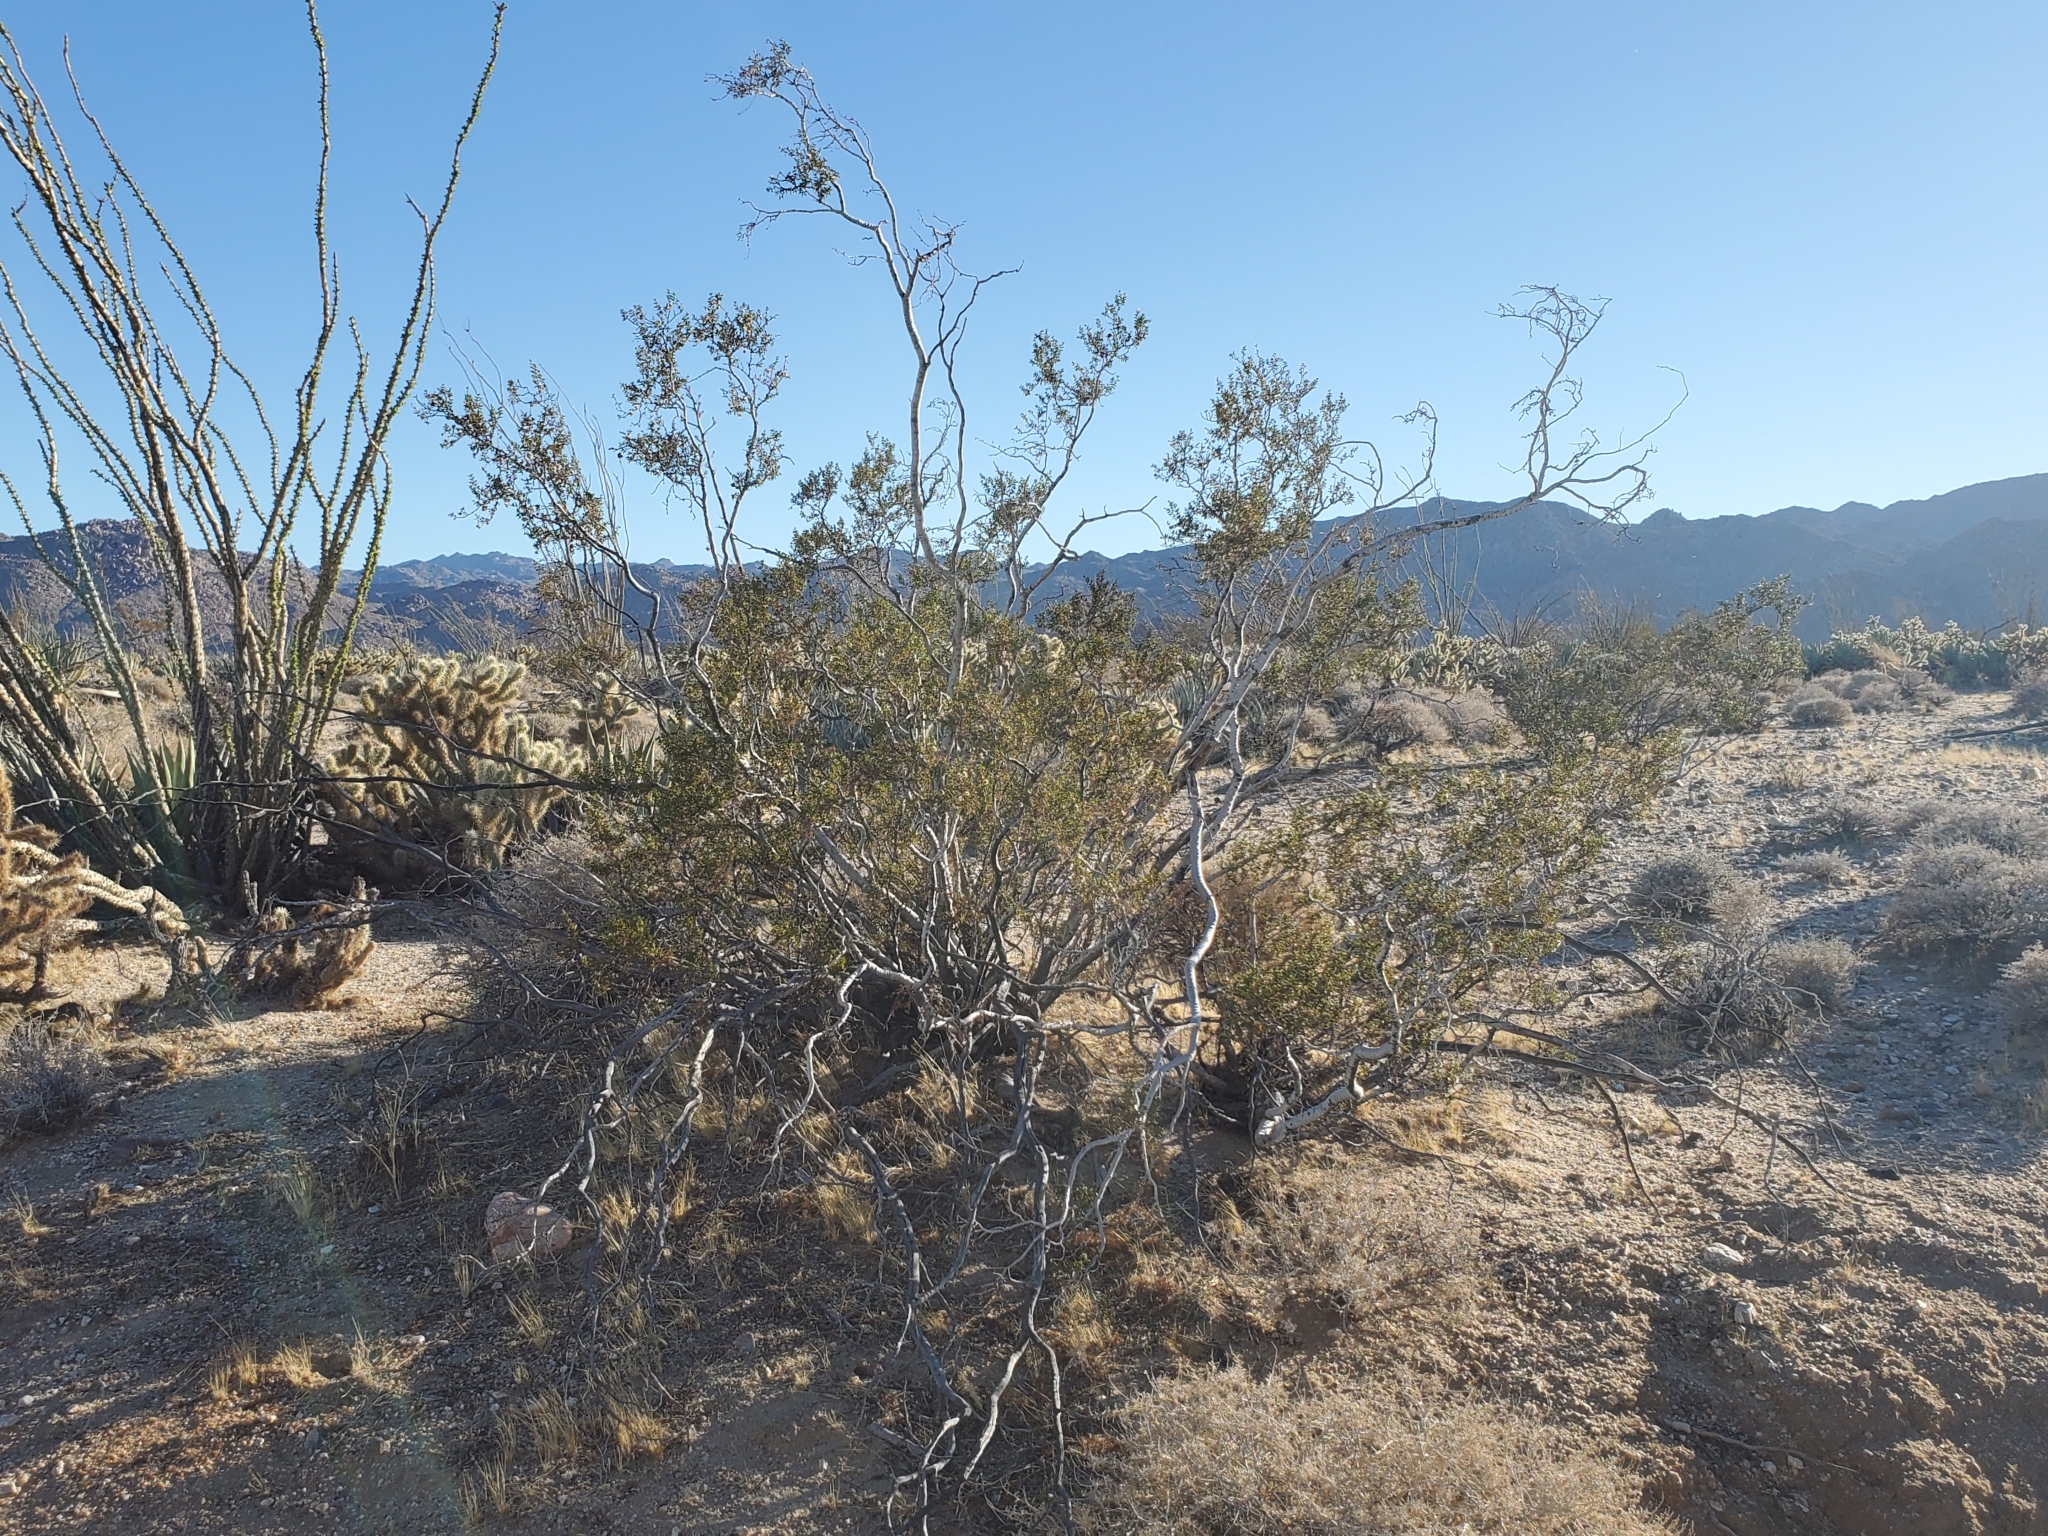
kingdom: Plantae
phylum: Tracheophyta
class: Magnoliopsida
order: Zygophyllales
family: Zygophyllaceae
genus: Larrea
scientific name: Larrea tridentata
